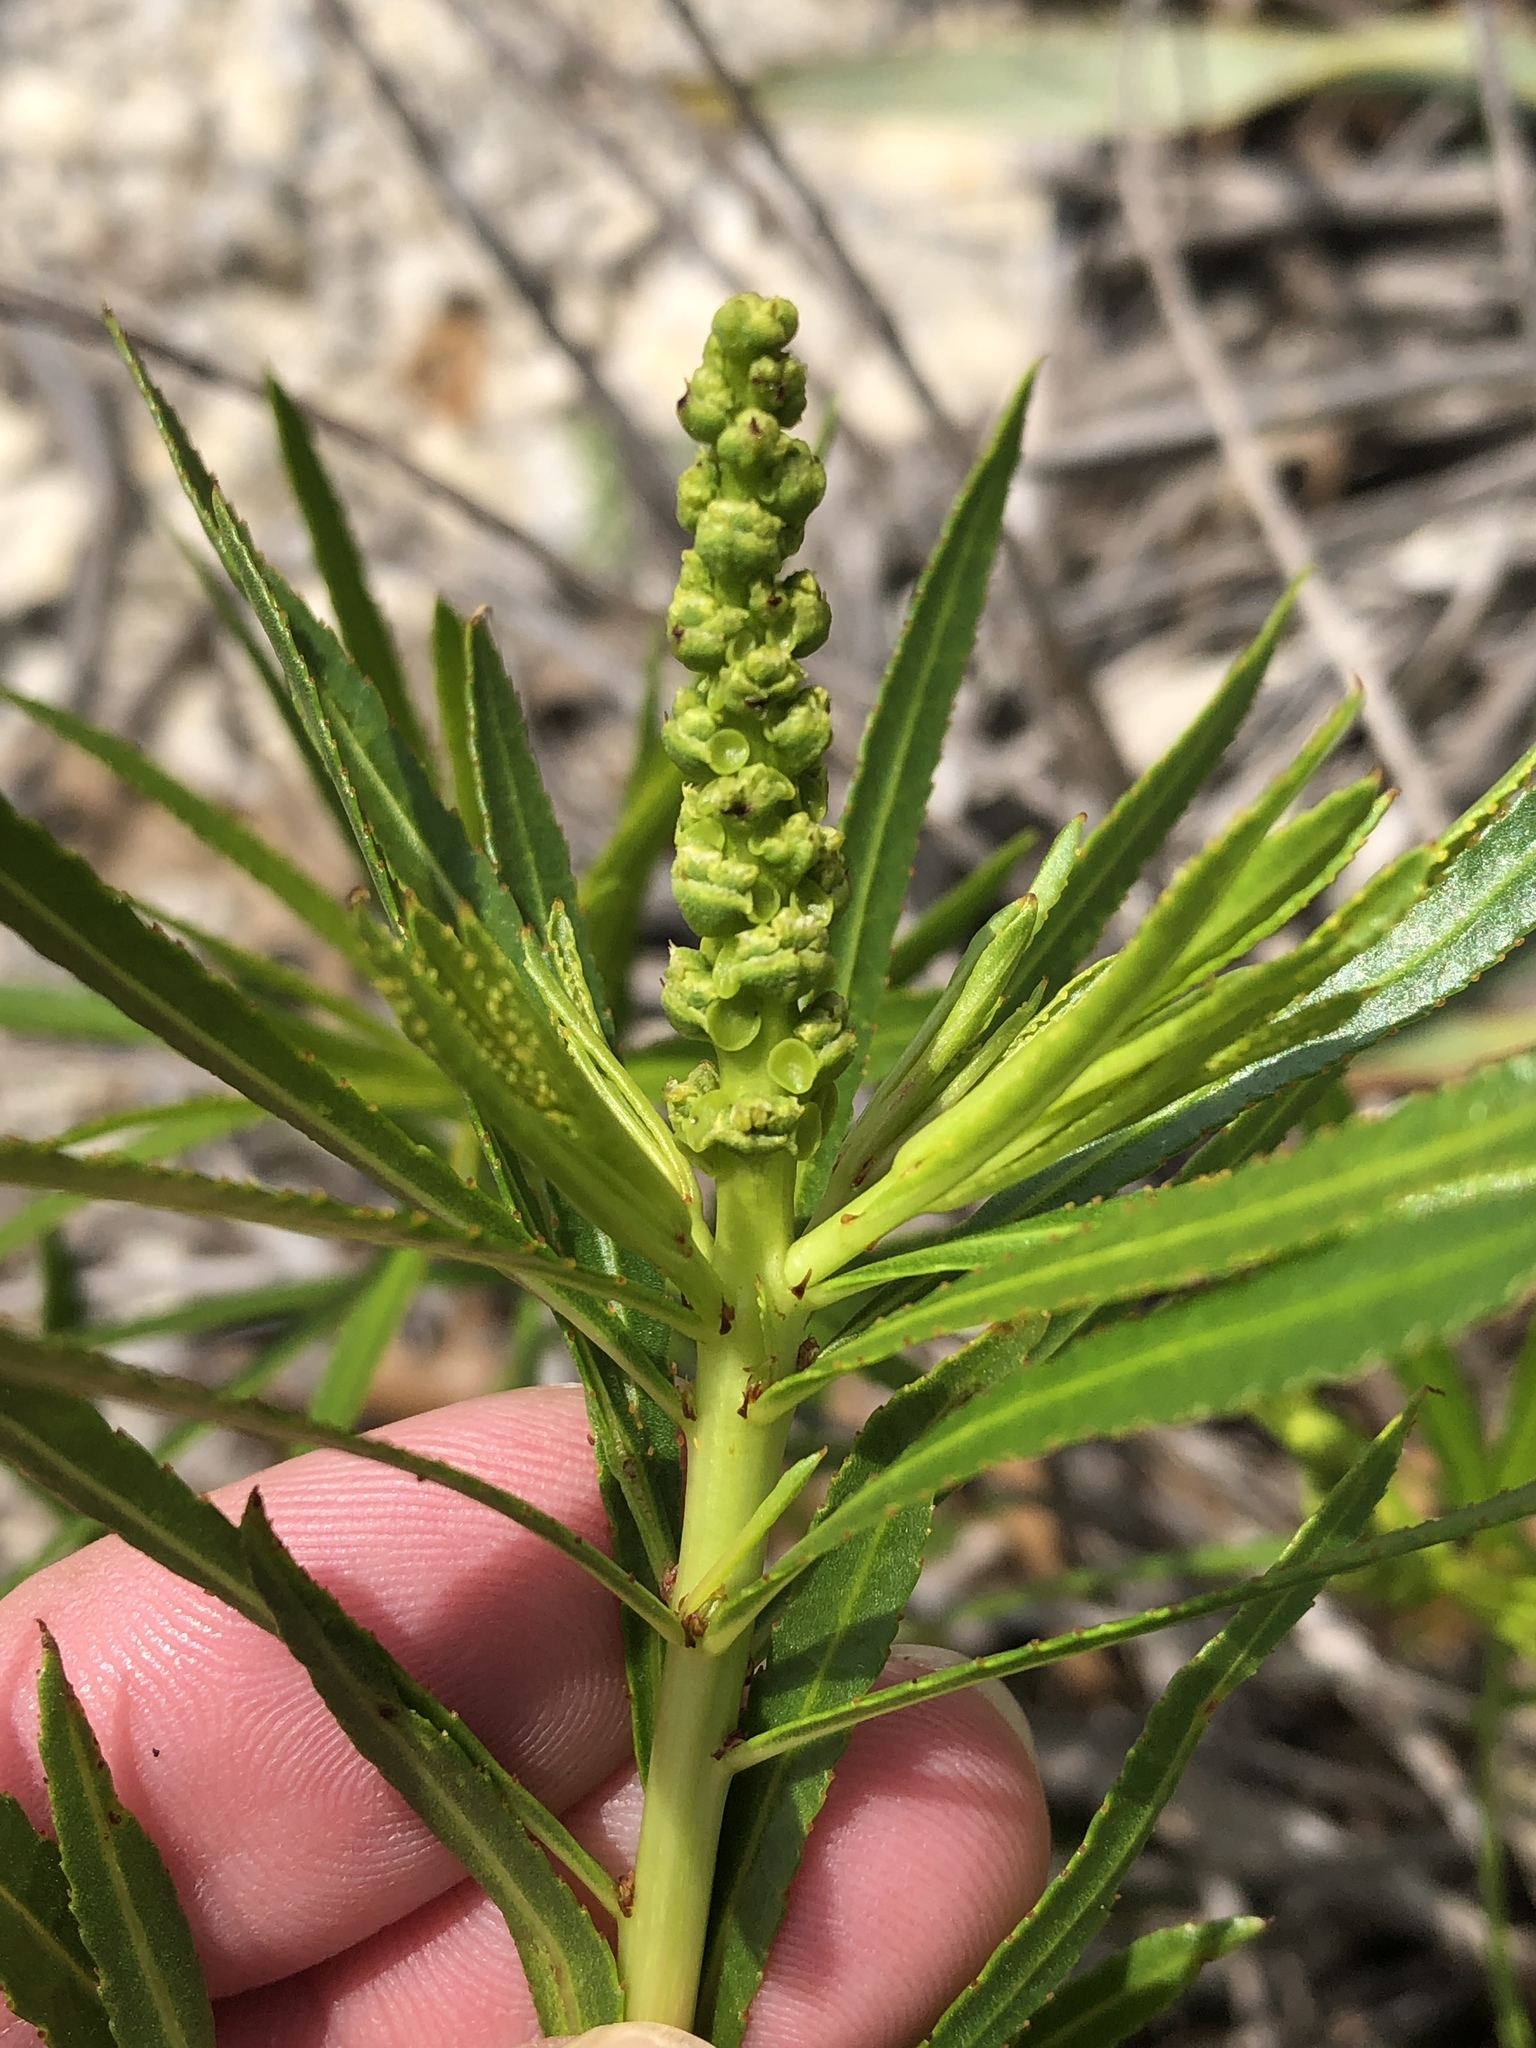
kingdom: Plantae
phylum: Tracheophyta
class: Magnoliopsida
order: Malpighiales
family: Euphorbiaceae
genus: Stillingia
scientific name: Stillingia texana
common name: Texas stillingia
